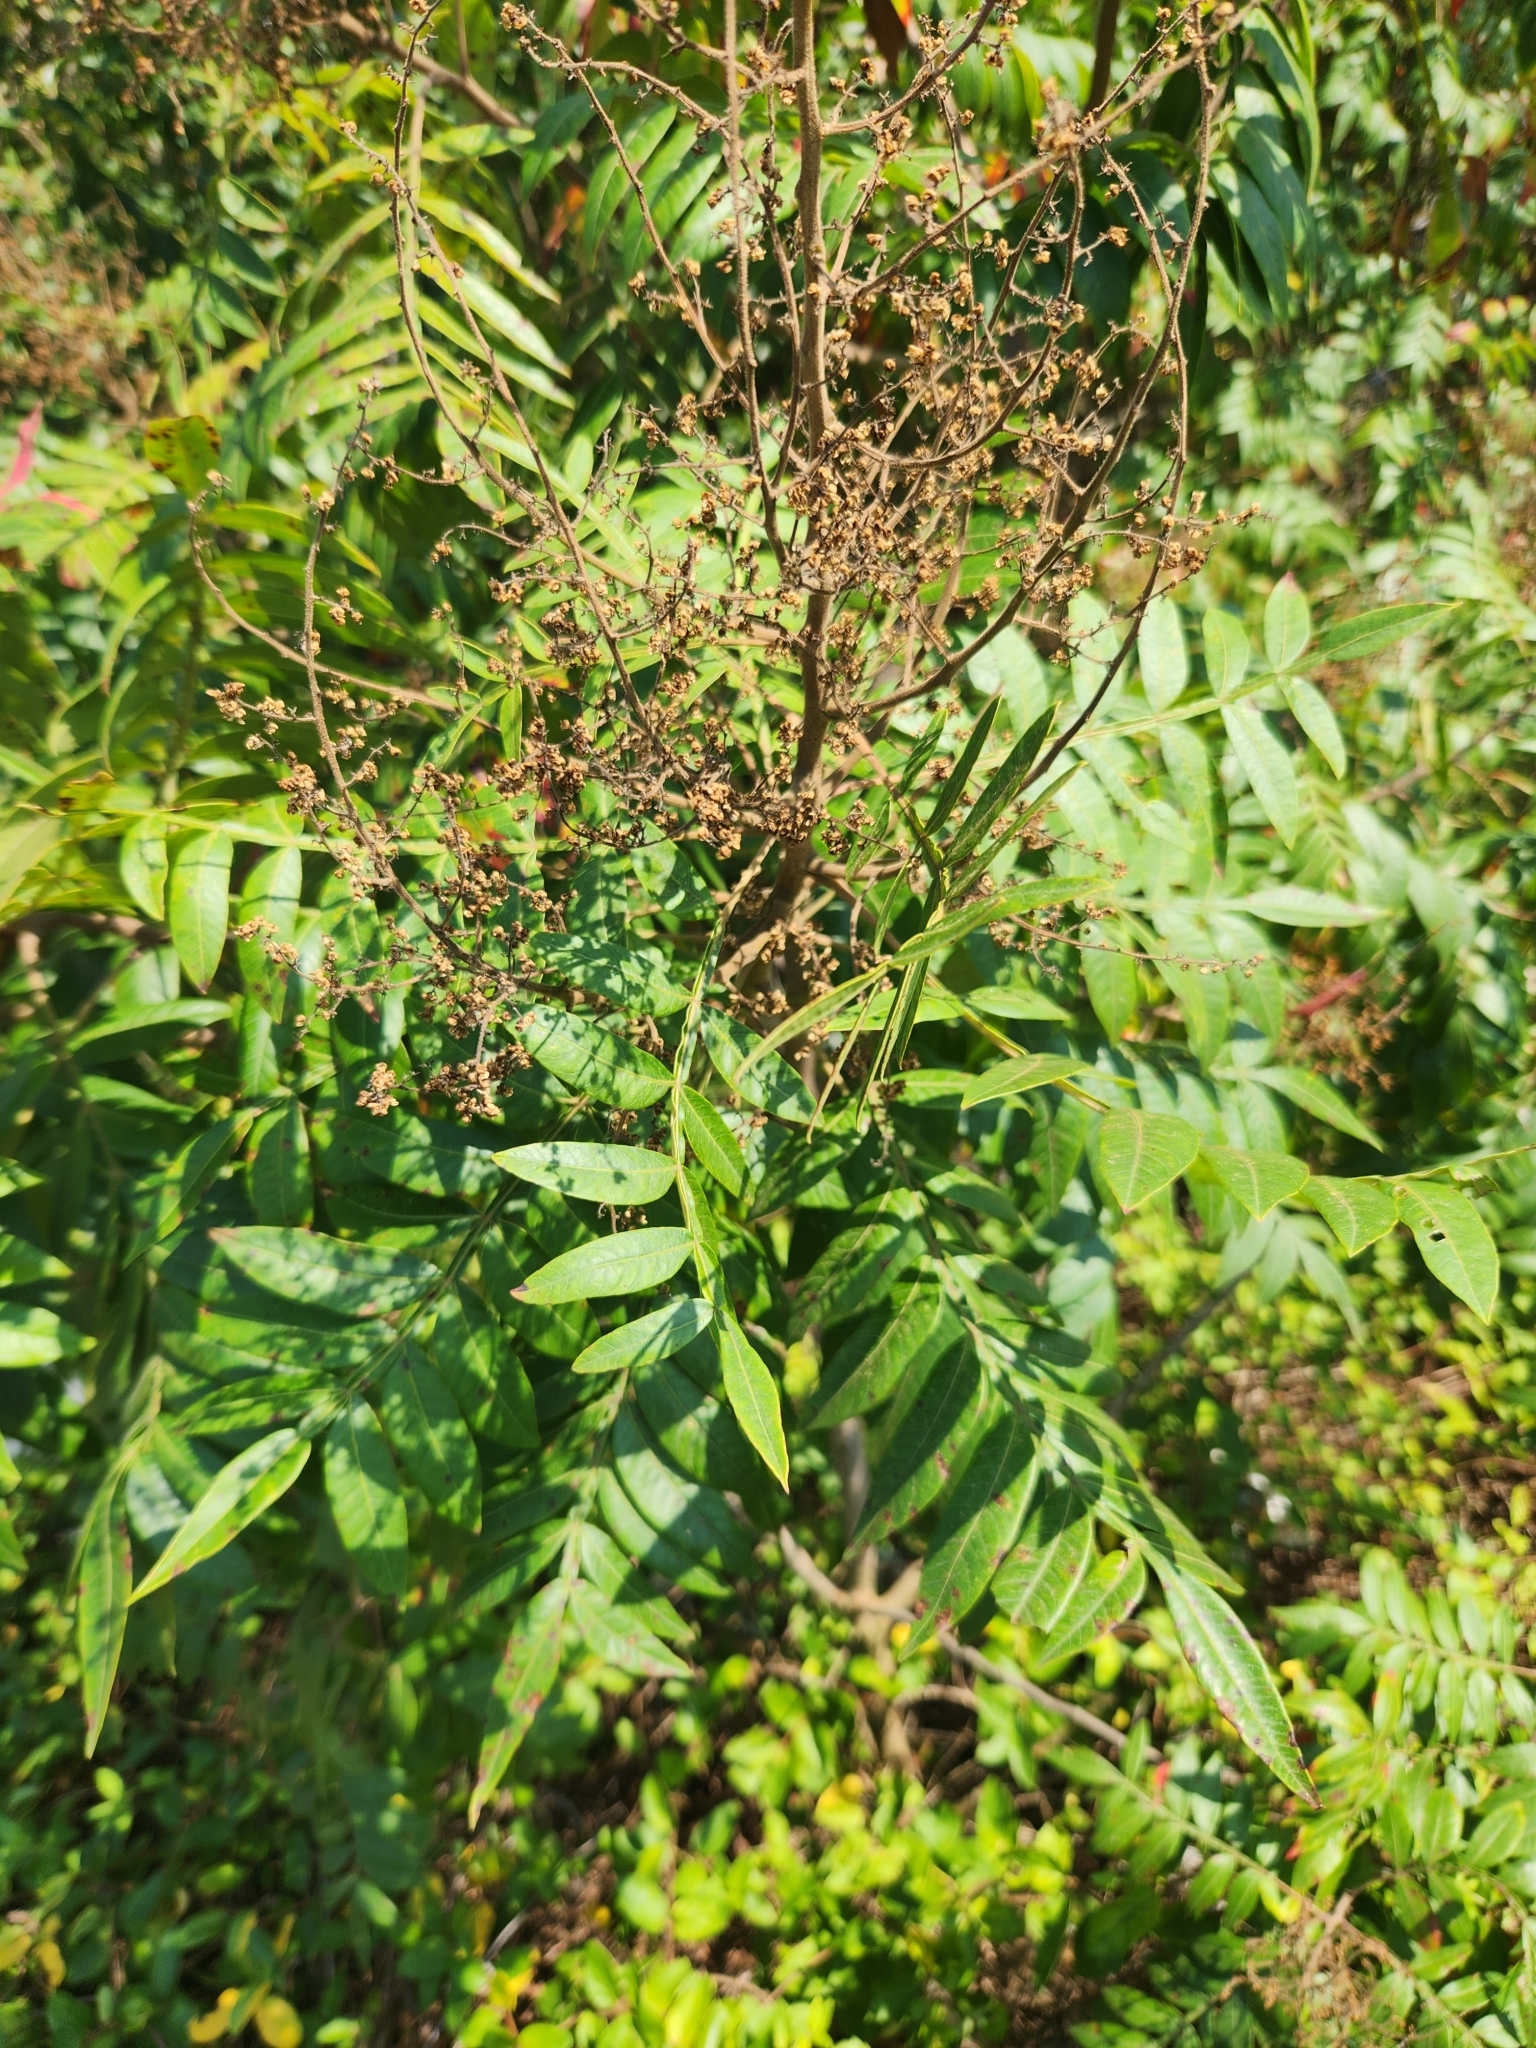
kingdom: Plantae
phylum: Tracheophyta
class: Magnoliopsida
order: Sapindales
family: Anacardiaceae
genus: Rhus
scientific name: Rhus copallina
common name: Shining sumac
